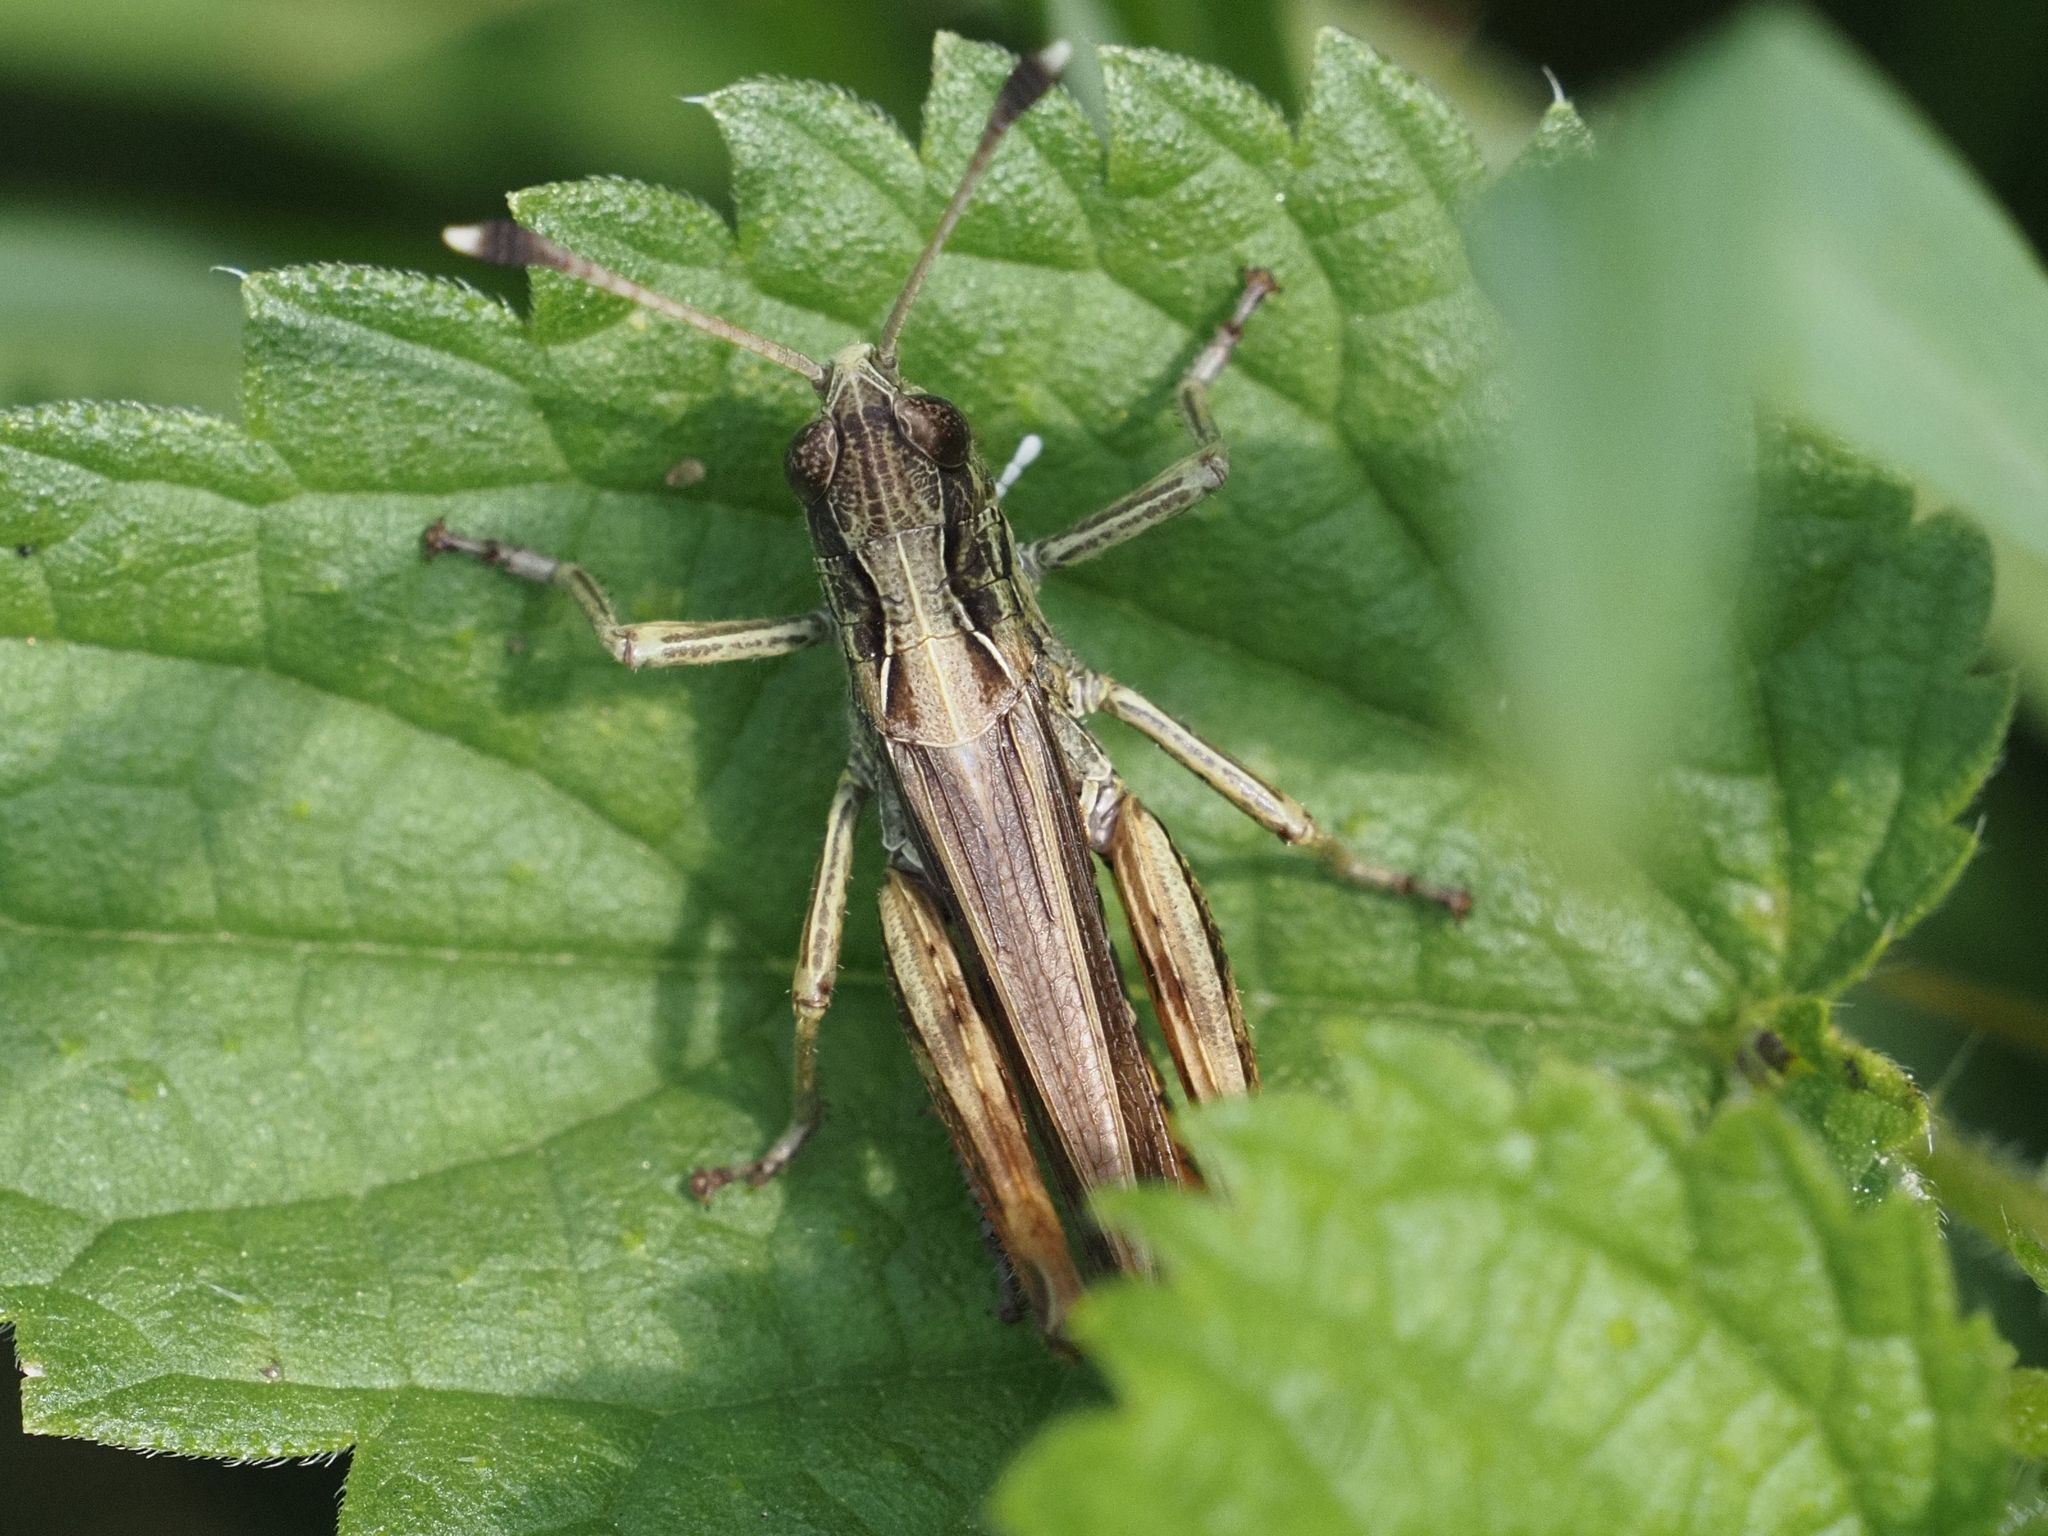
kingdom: Animalia
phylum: Arthropoda
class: Insecta
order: Orthoptera
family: Acrididae
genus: Gomphocerippus
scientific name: Gomphocerippus rufus
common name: Rufous grasshopper
